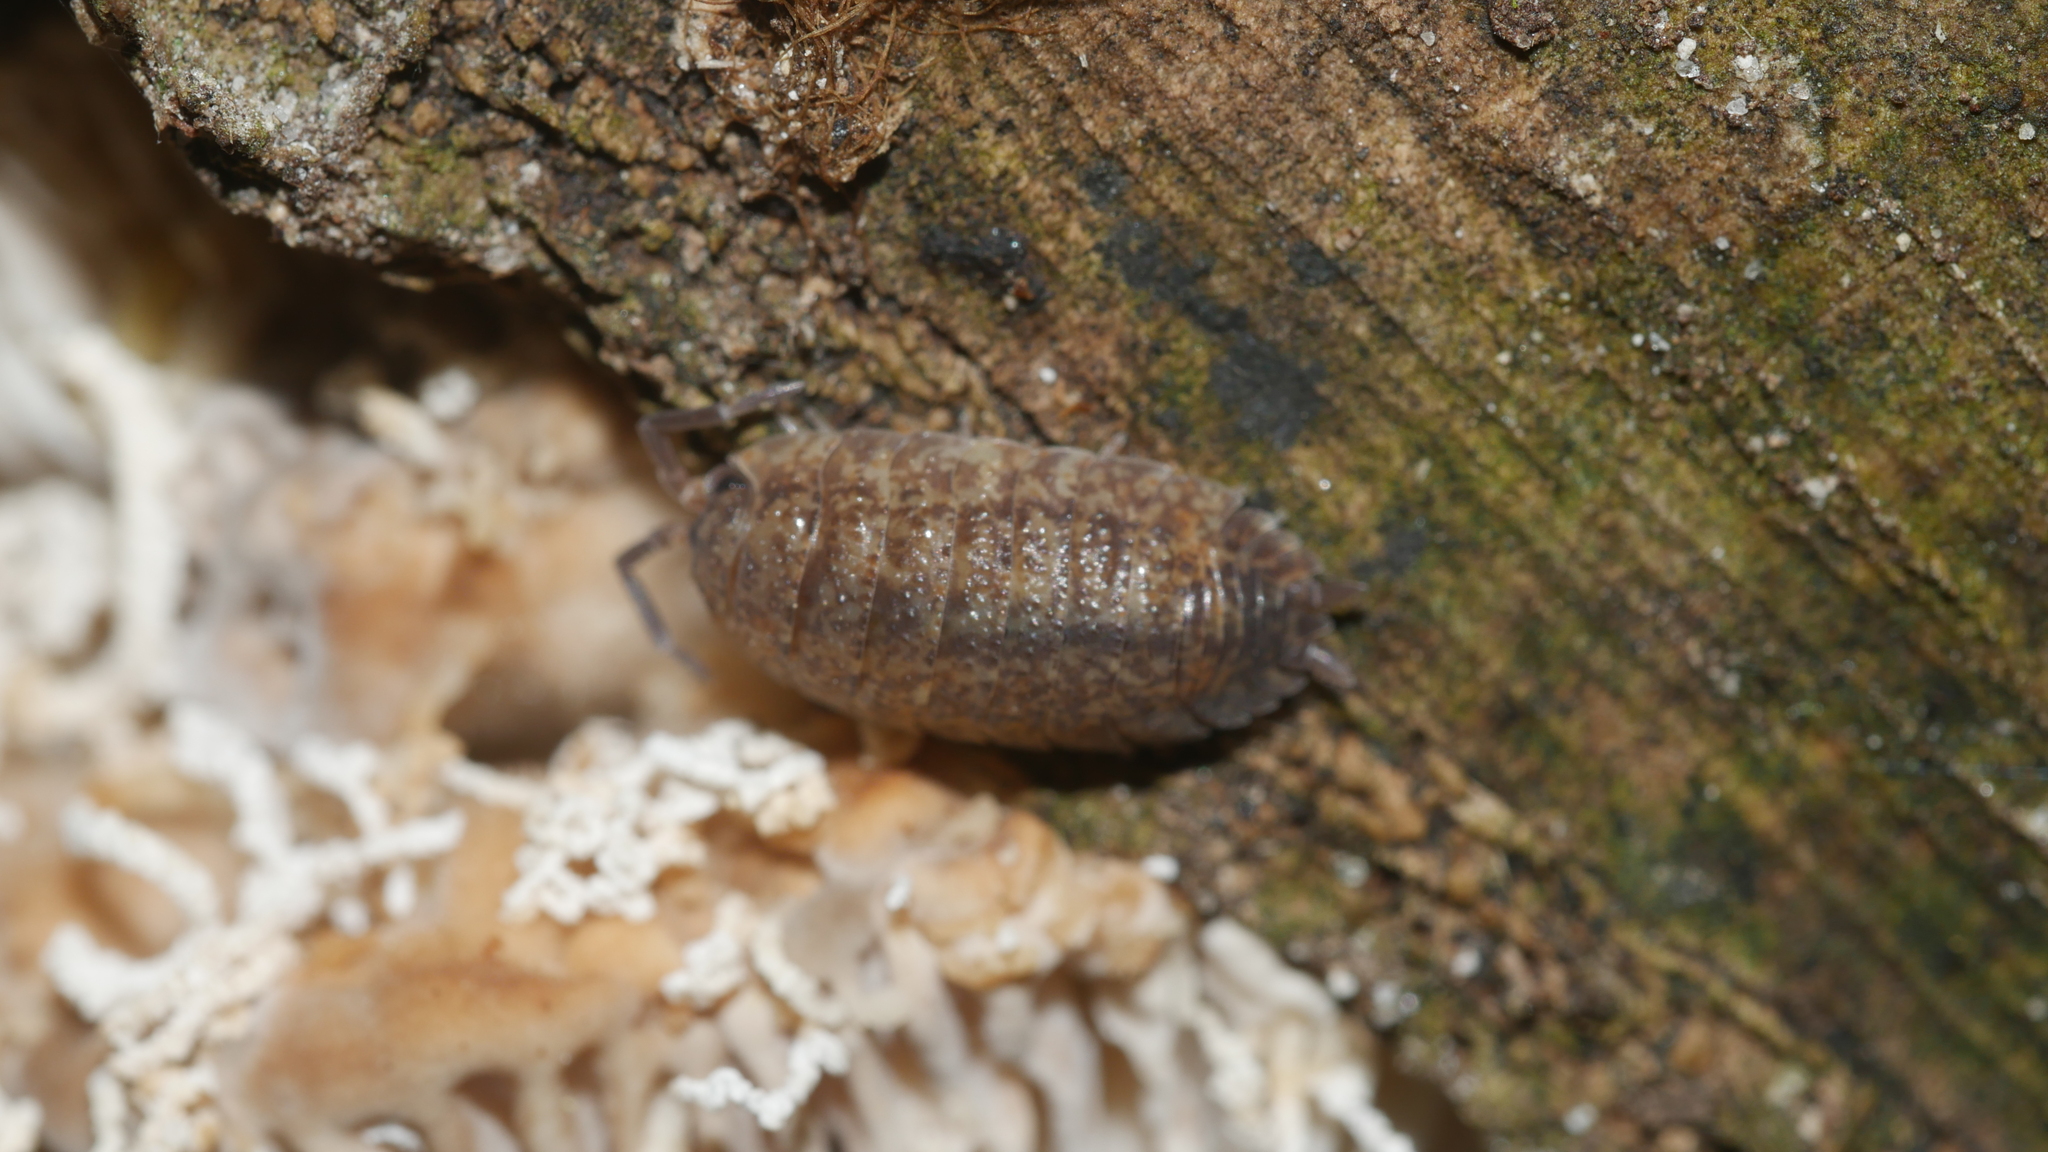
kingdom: Animalia
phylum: Arthropoda
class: Malacostraca
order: Isopoda
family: Porcellionidae
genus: Porcellio
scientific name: Porcellio scaber
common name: Common rough woodlouse
